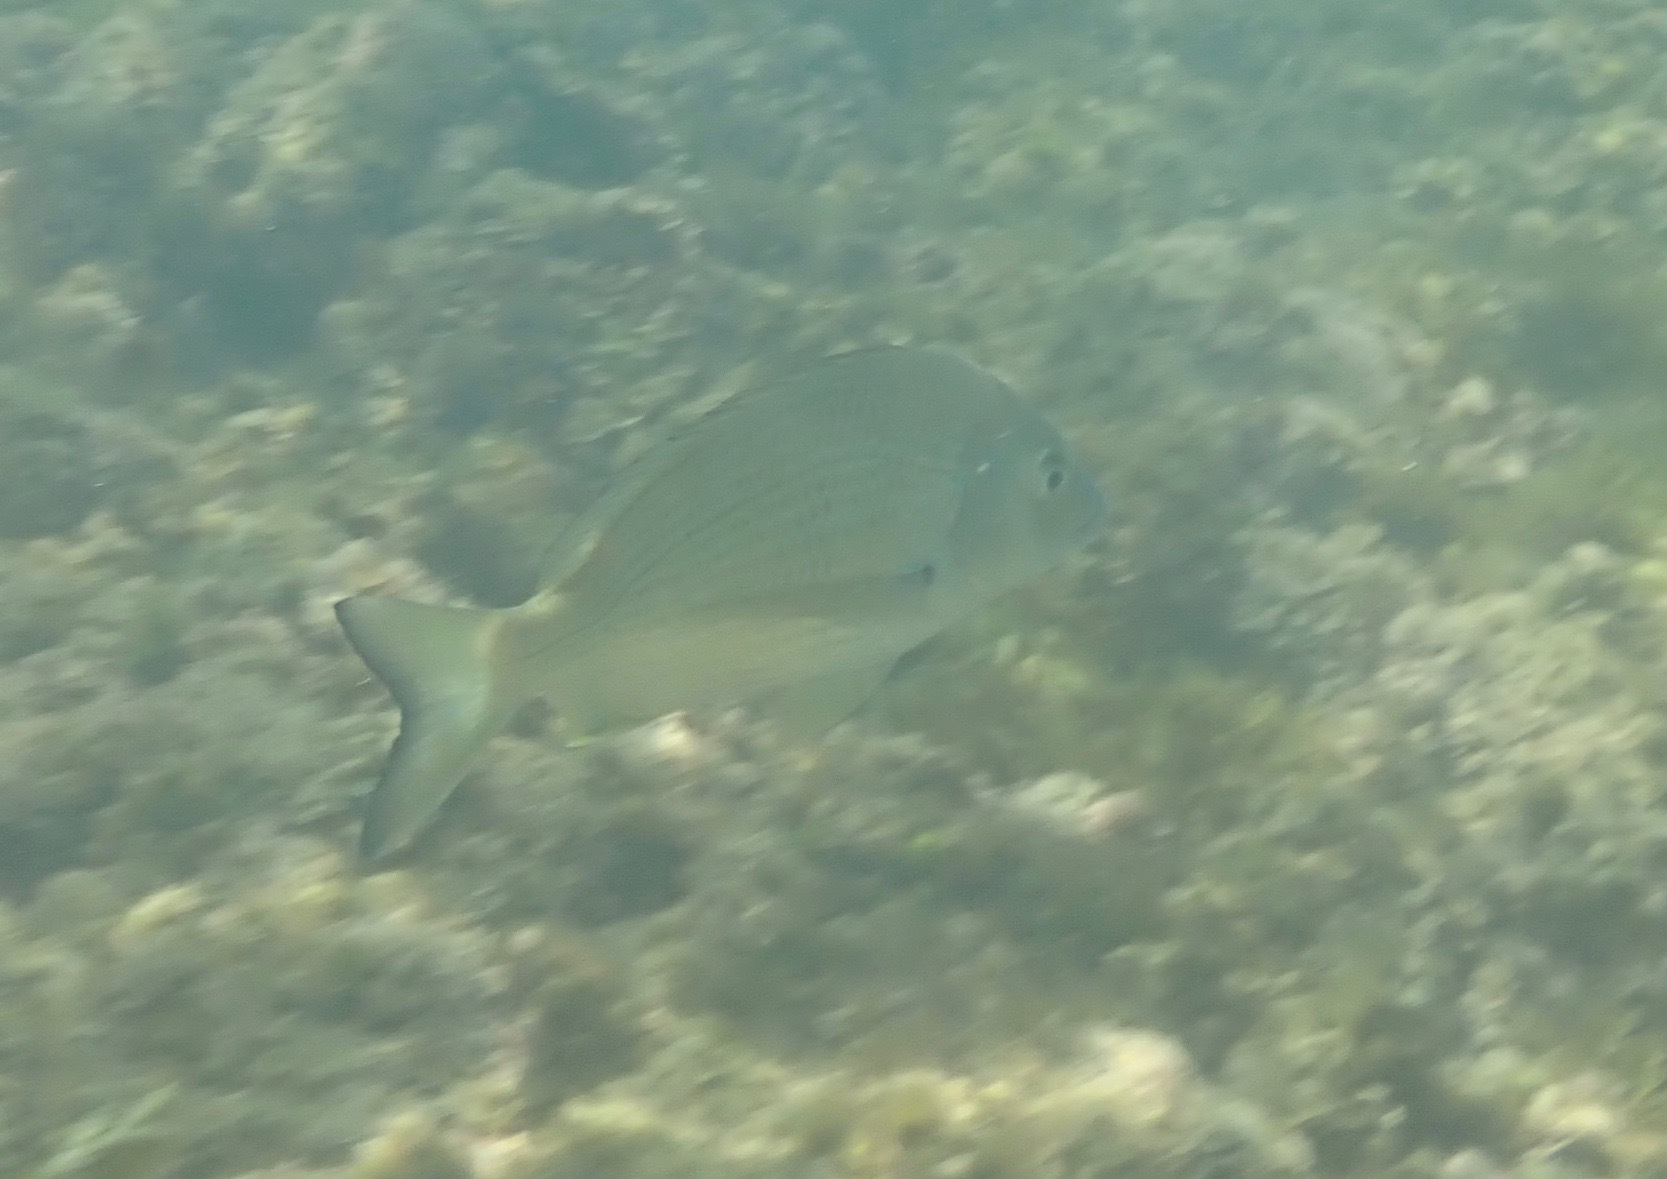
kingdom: Animalia
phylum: Chordata
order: Perciformes
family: Sparidae
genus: Acanthopagrus
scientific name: Acanthopagrus australis
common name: Surf bream
